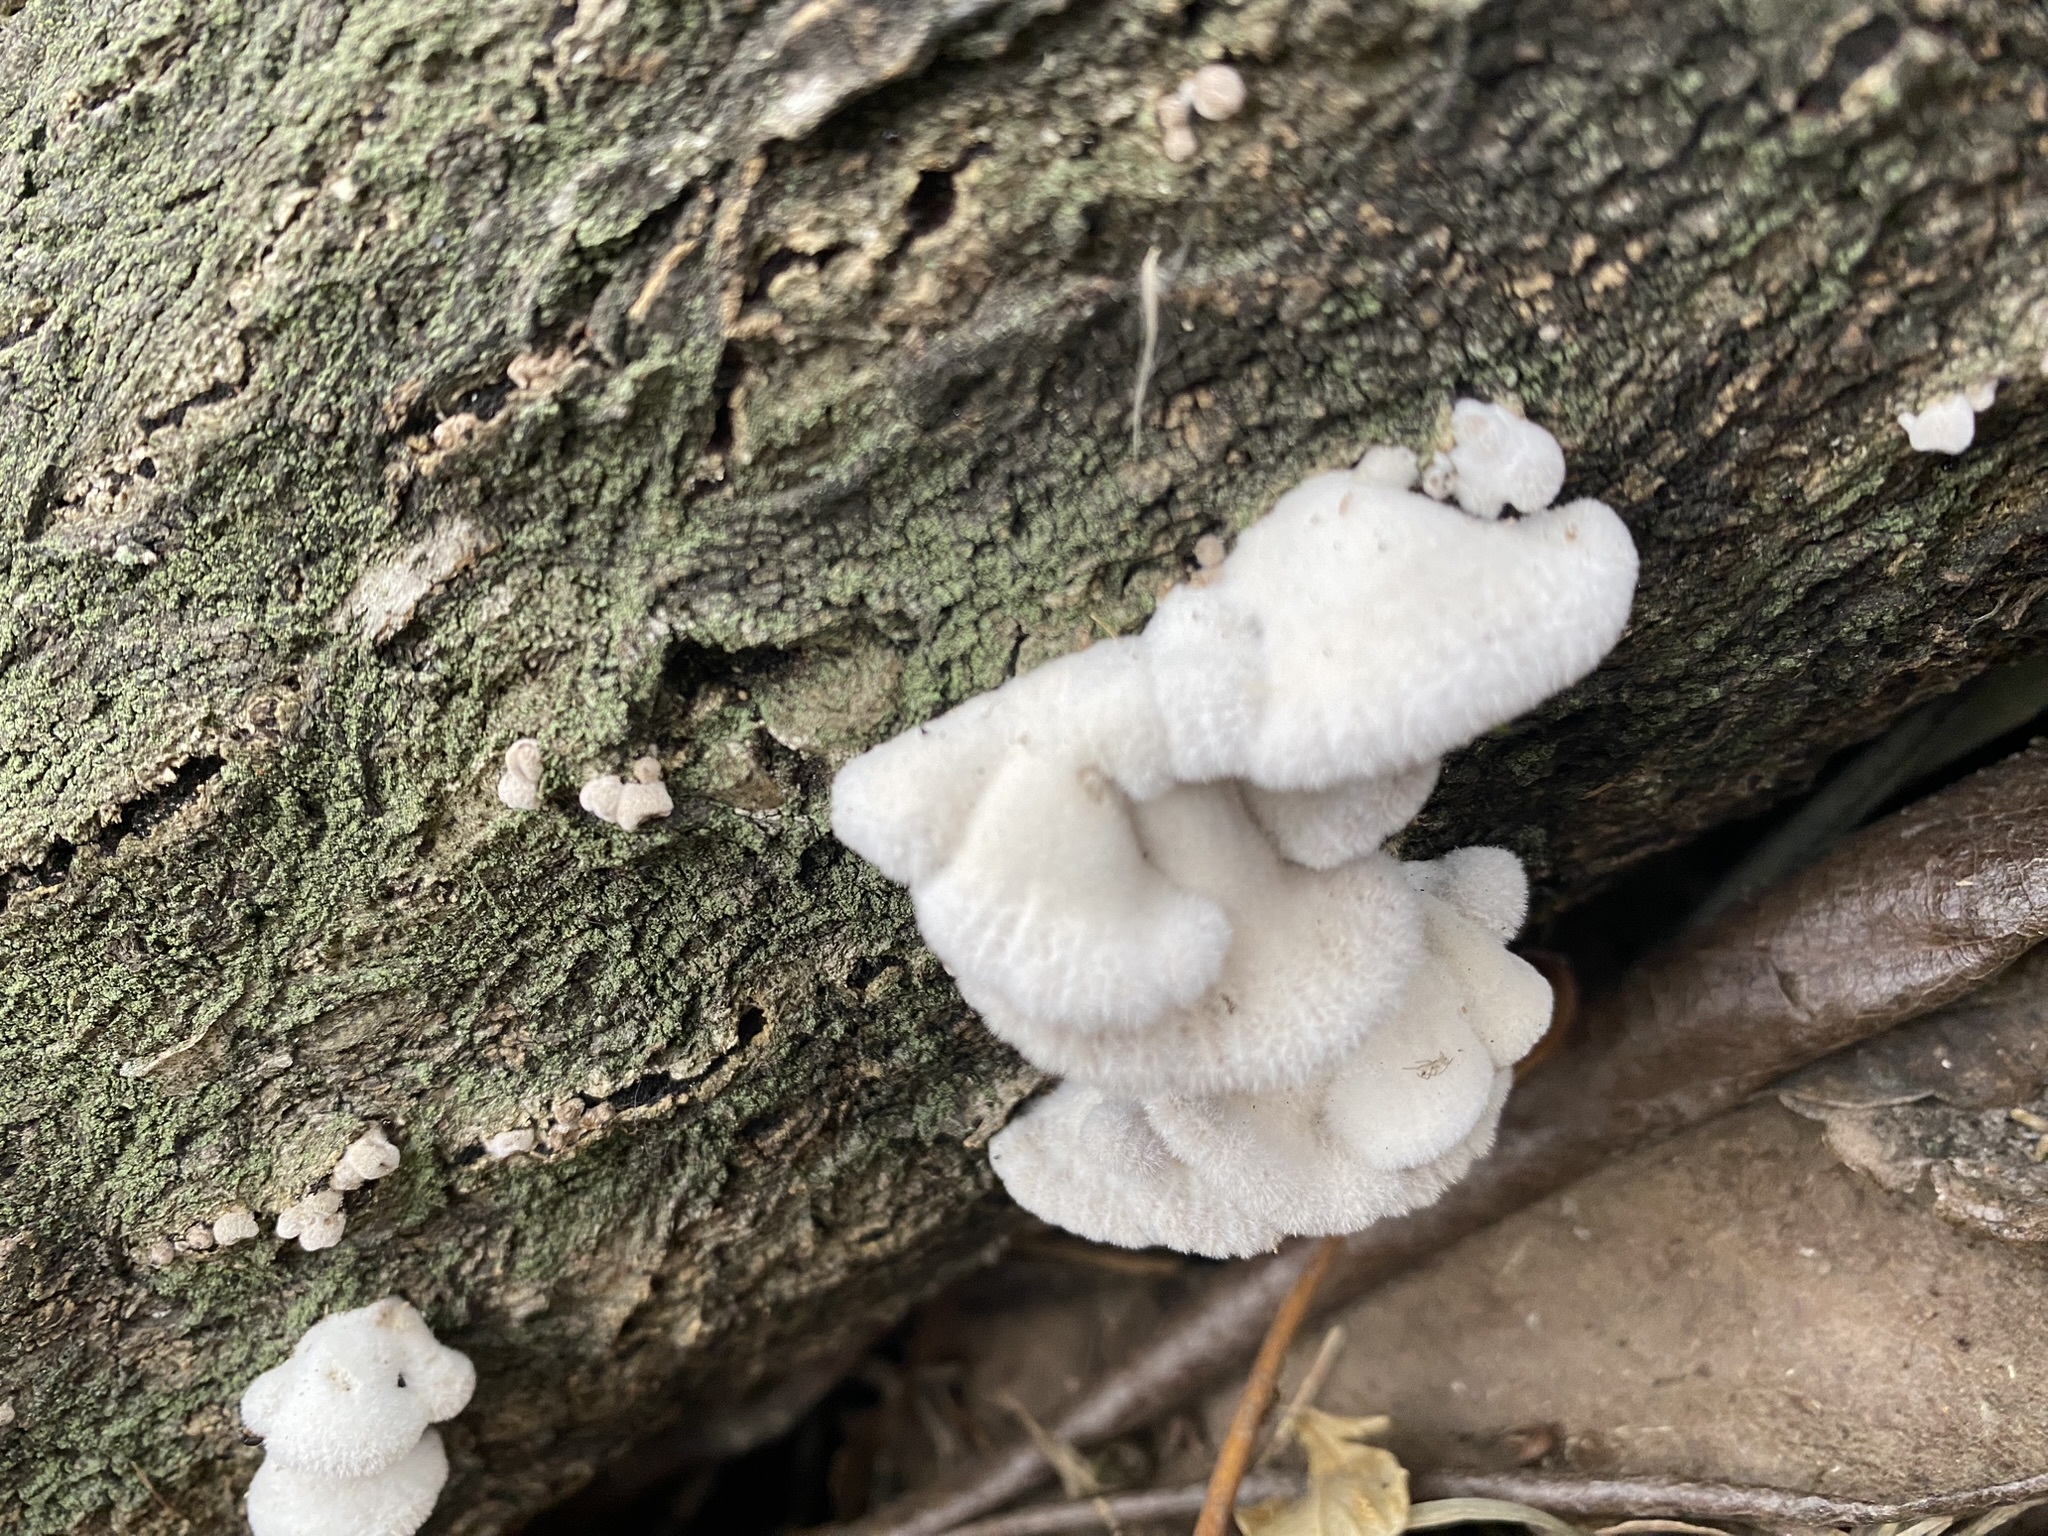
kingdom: Fungi
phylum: Basidiomycota
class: Agaricomycetes
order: Agaricales
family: Schizophyllaceae
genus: Schizophyllum
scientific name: Schizophyllum commune
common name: Common porecrust
